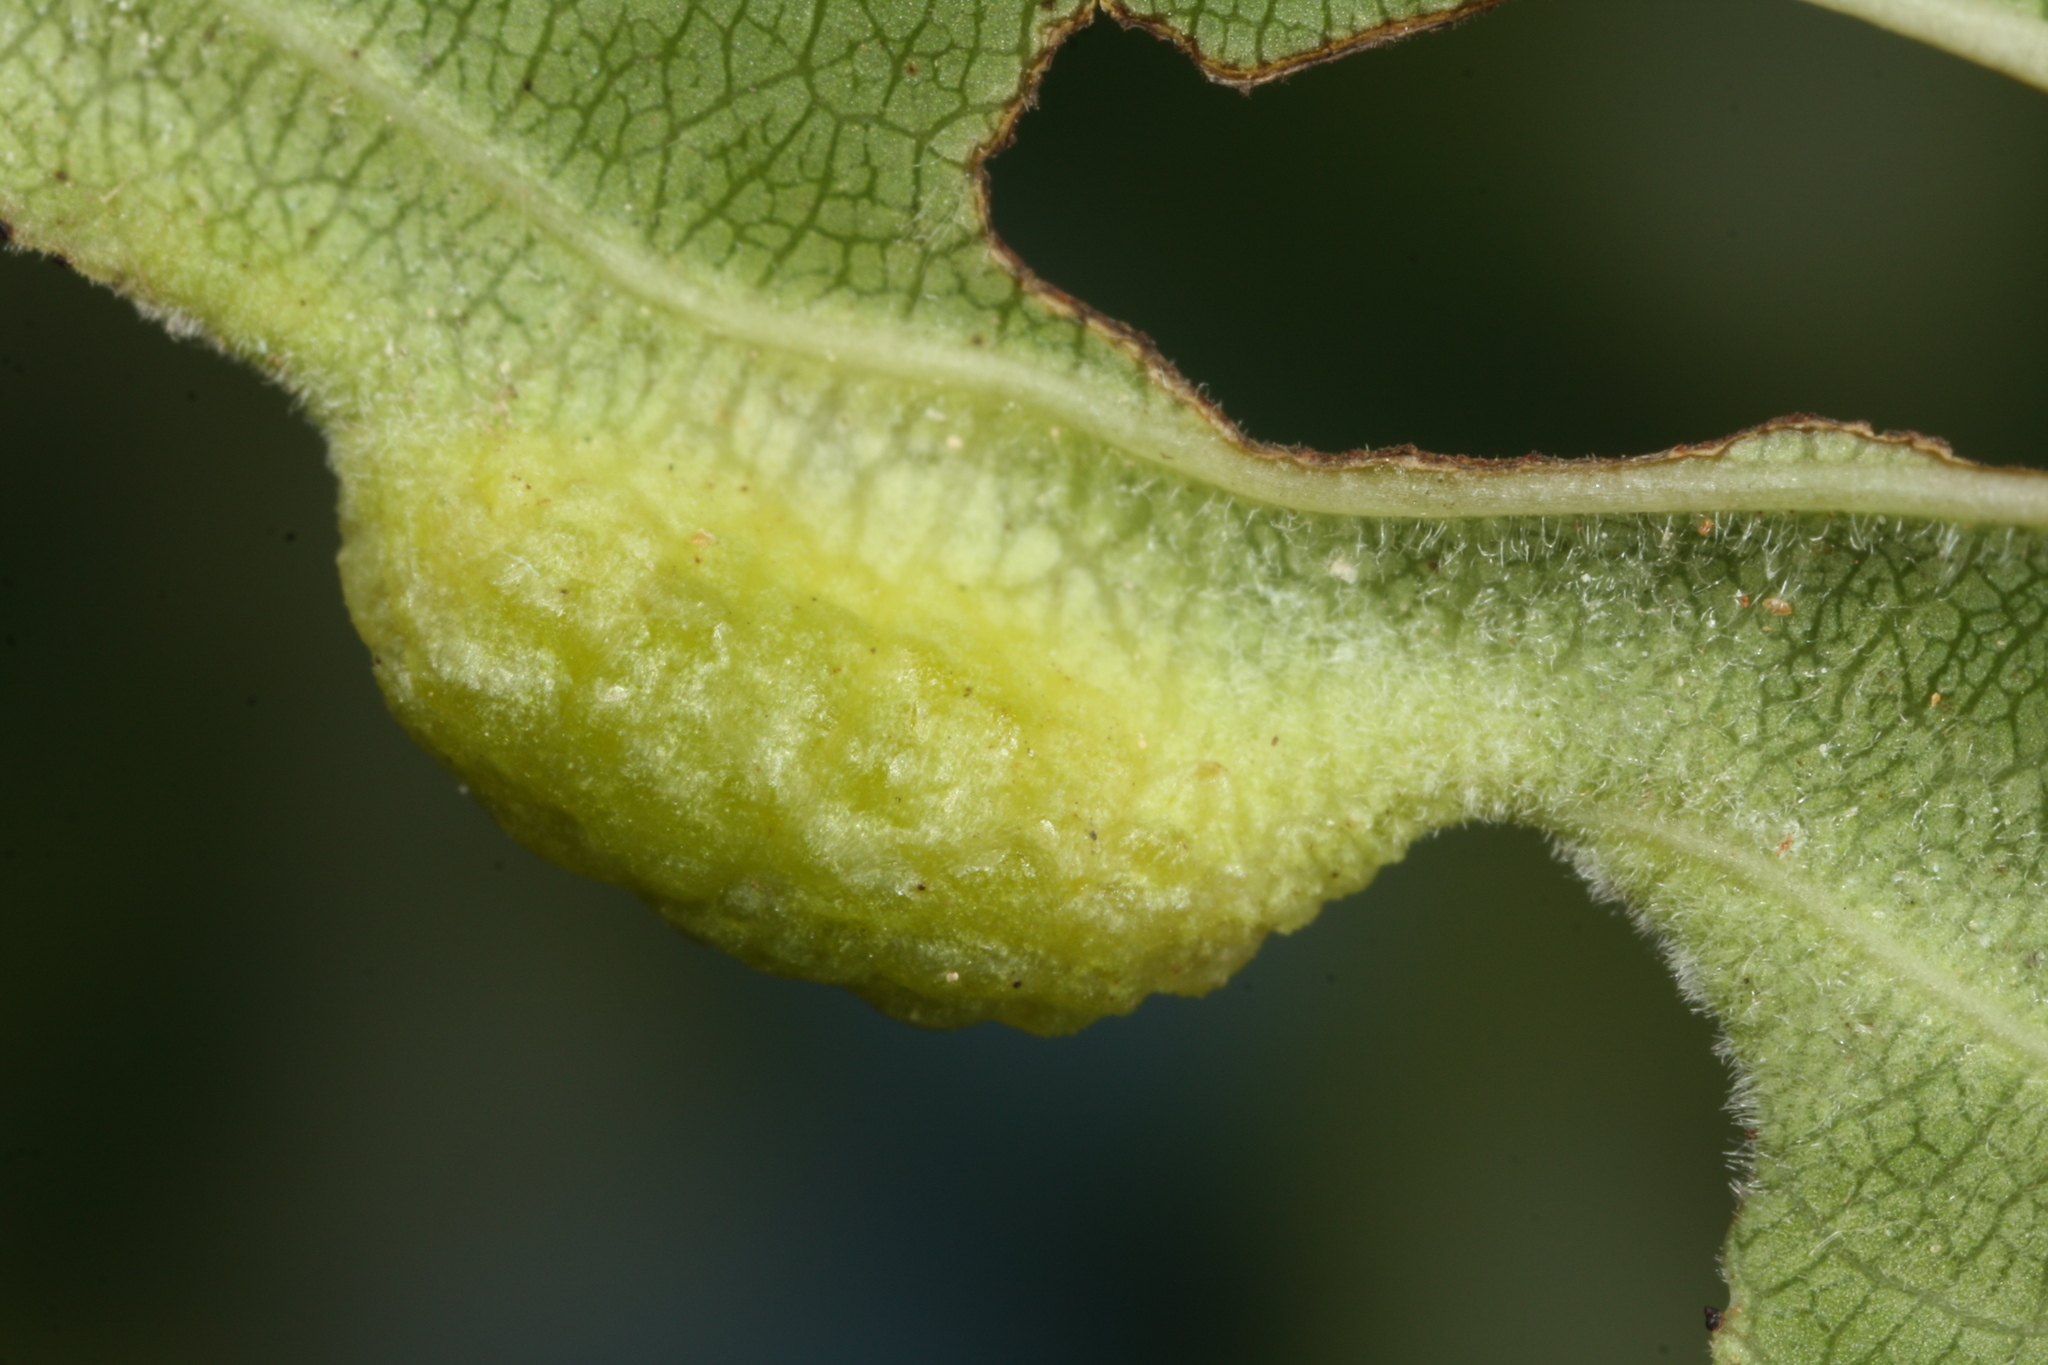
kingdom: Animalia
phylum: Arthropoda
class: Insecta
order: Hemiptera
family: Triozidae
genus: Trichochermes
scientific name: Trichochermes walkeri
